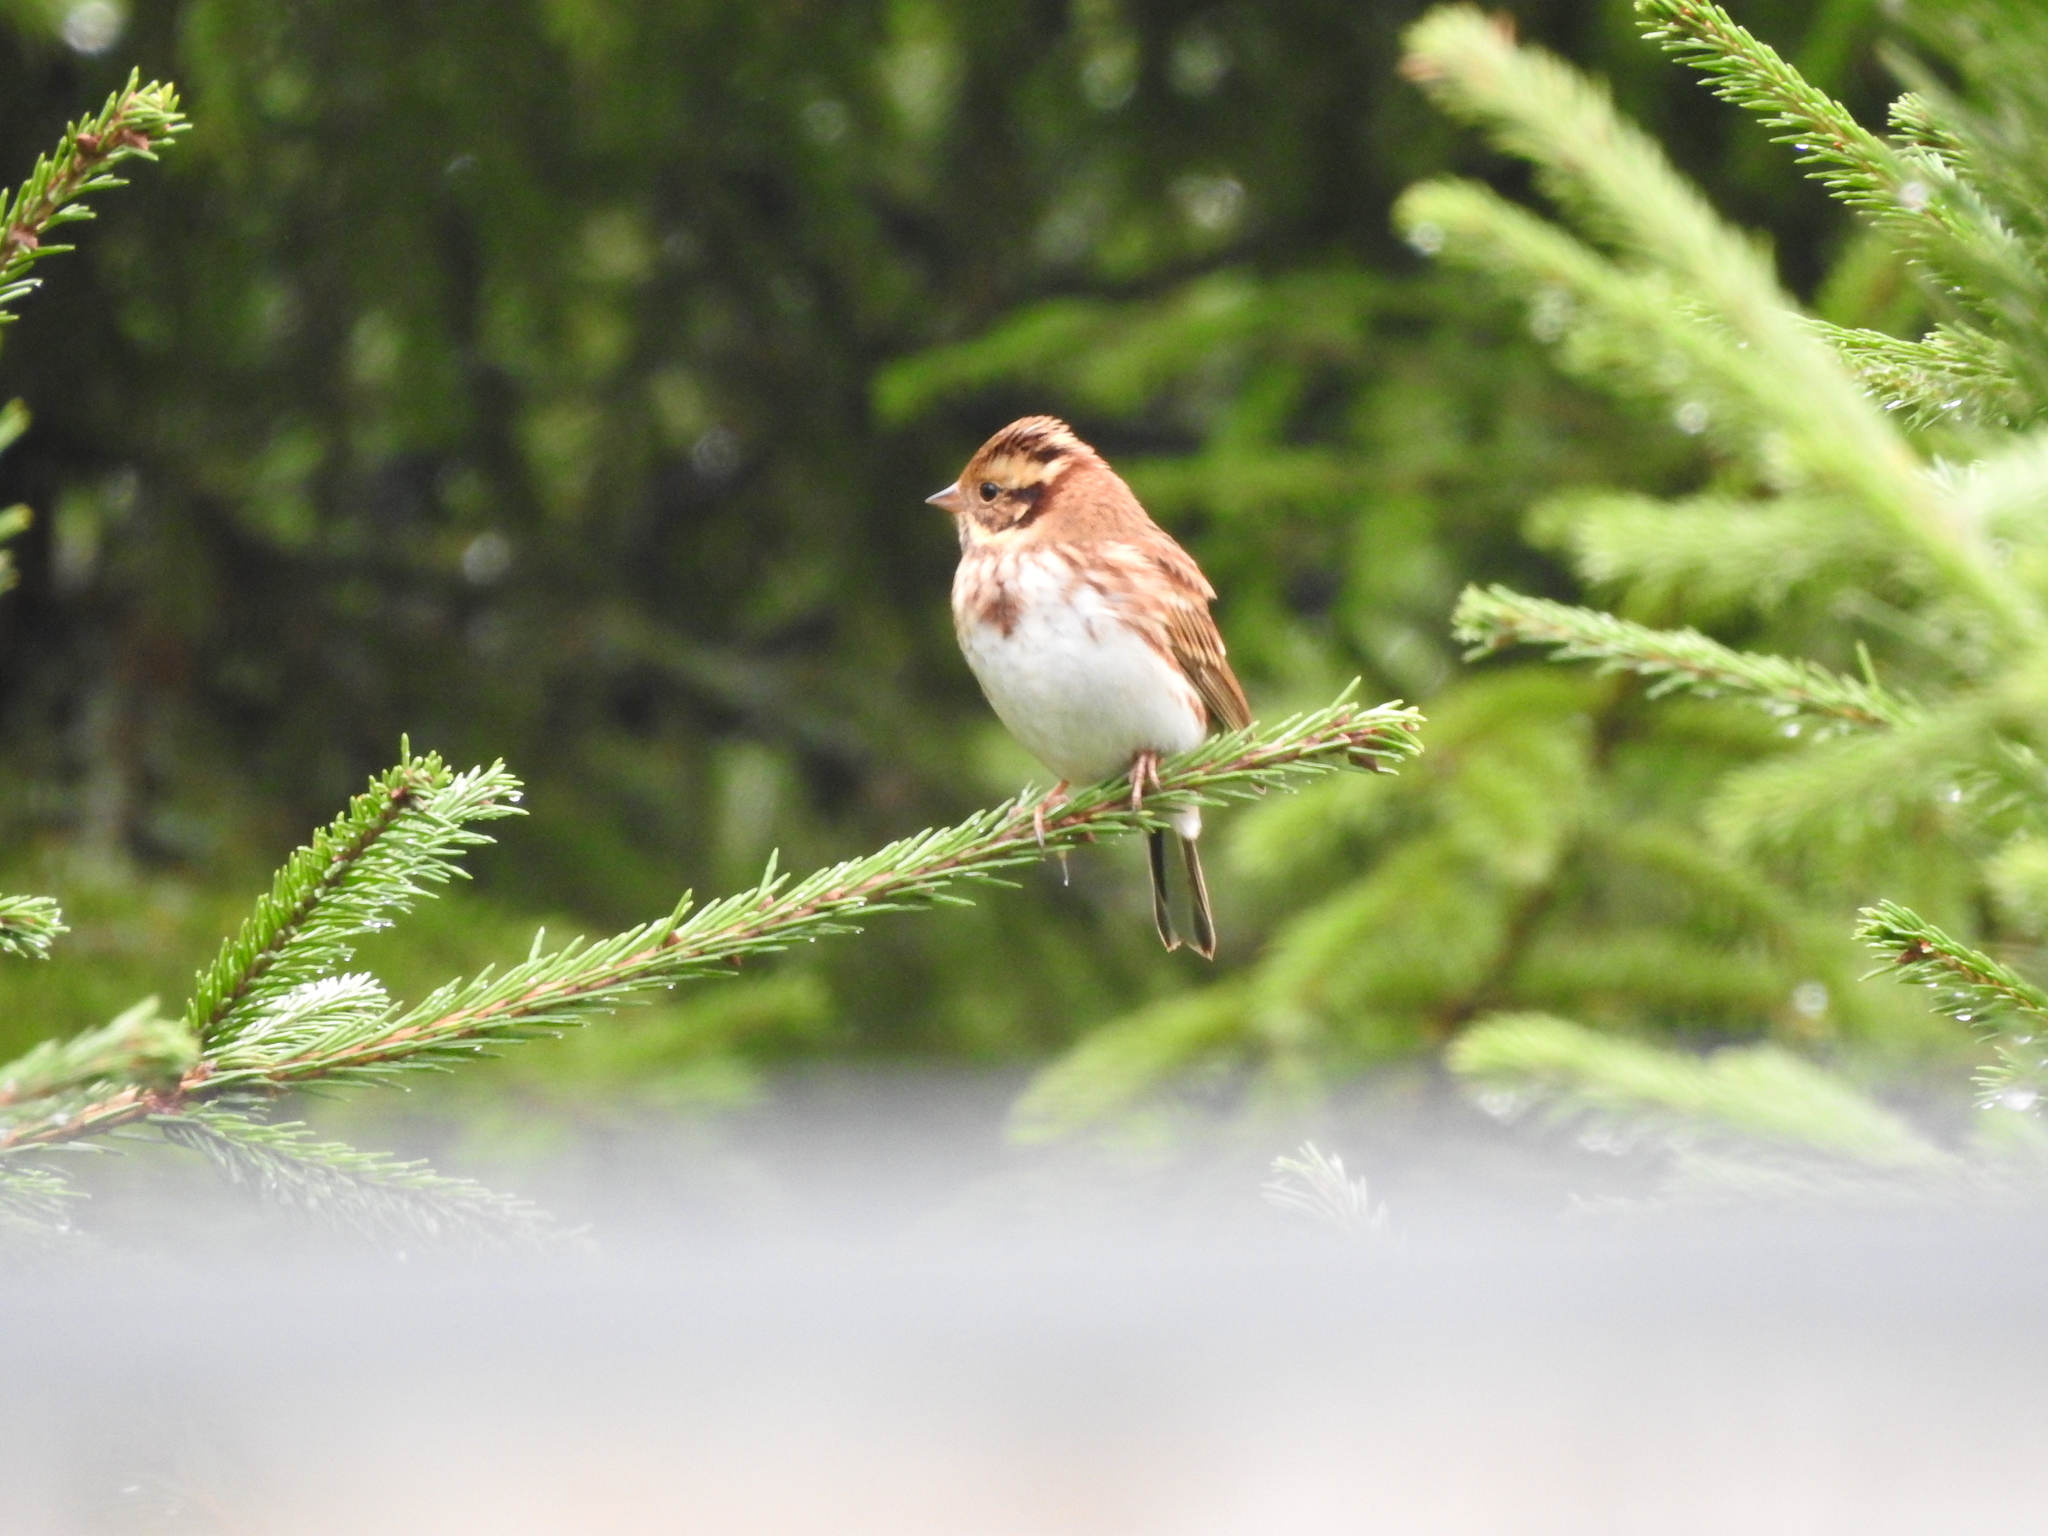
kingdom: Animalia
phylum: Chordata
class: Aves
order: Passeriformes
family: Emberizidae
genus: Emberiza
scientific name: Emberiza rustica
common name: Rustic bunting
